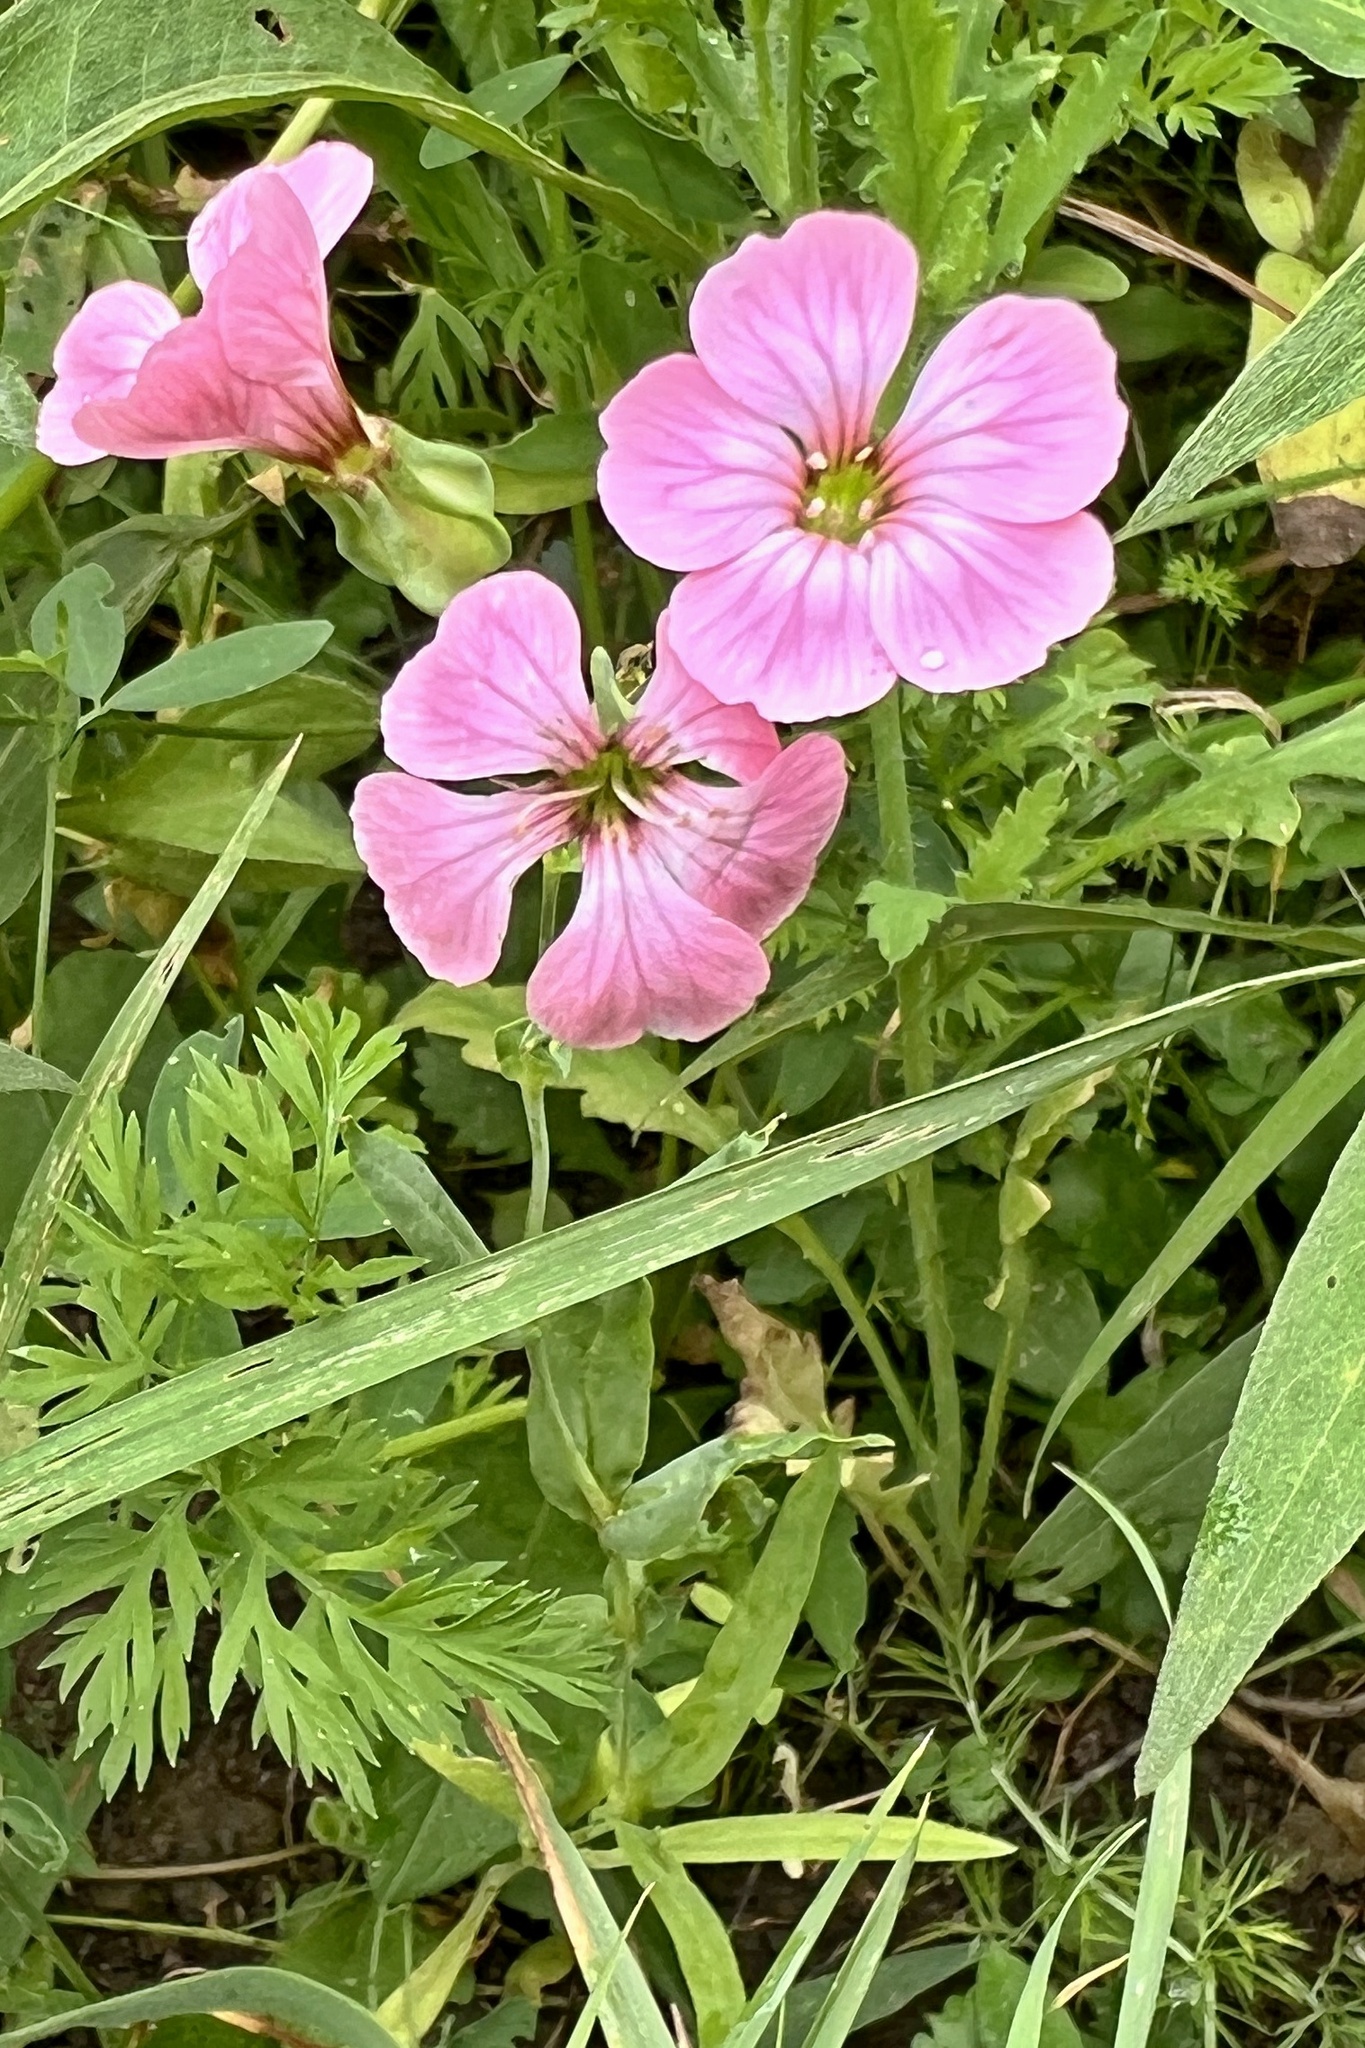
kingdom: Plantae
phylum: Tracheophyta
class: Magnoliopsida
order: Caryophyllales
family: Caryophyllaceae
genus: Gypsophila
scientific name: Gypsophila vaccaria
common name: Cow soapwort
